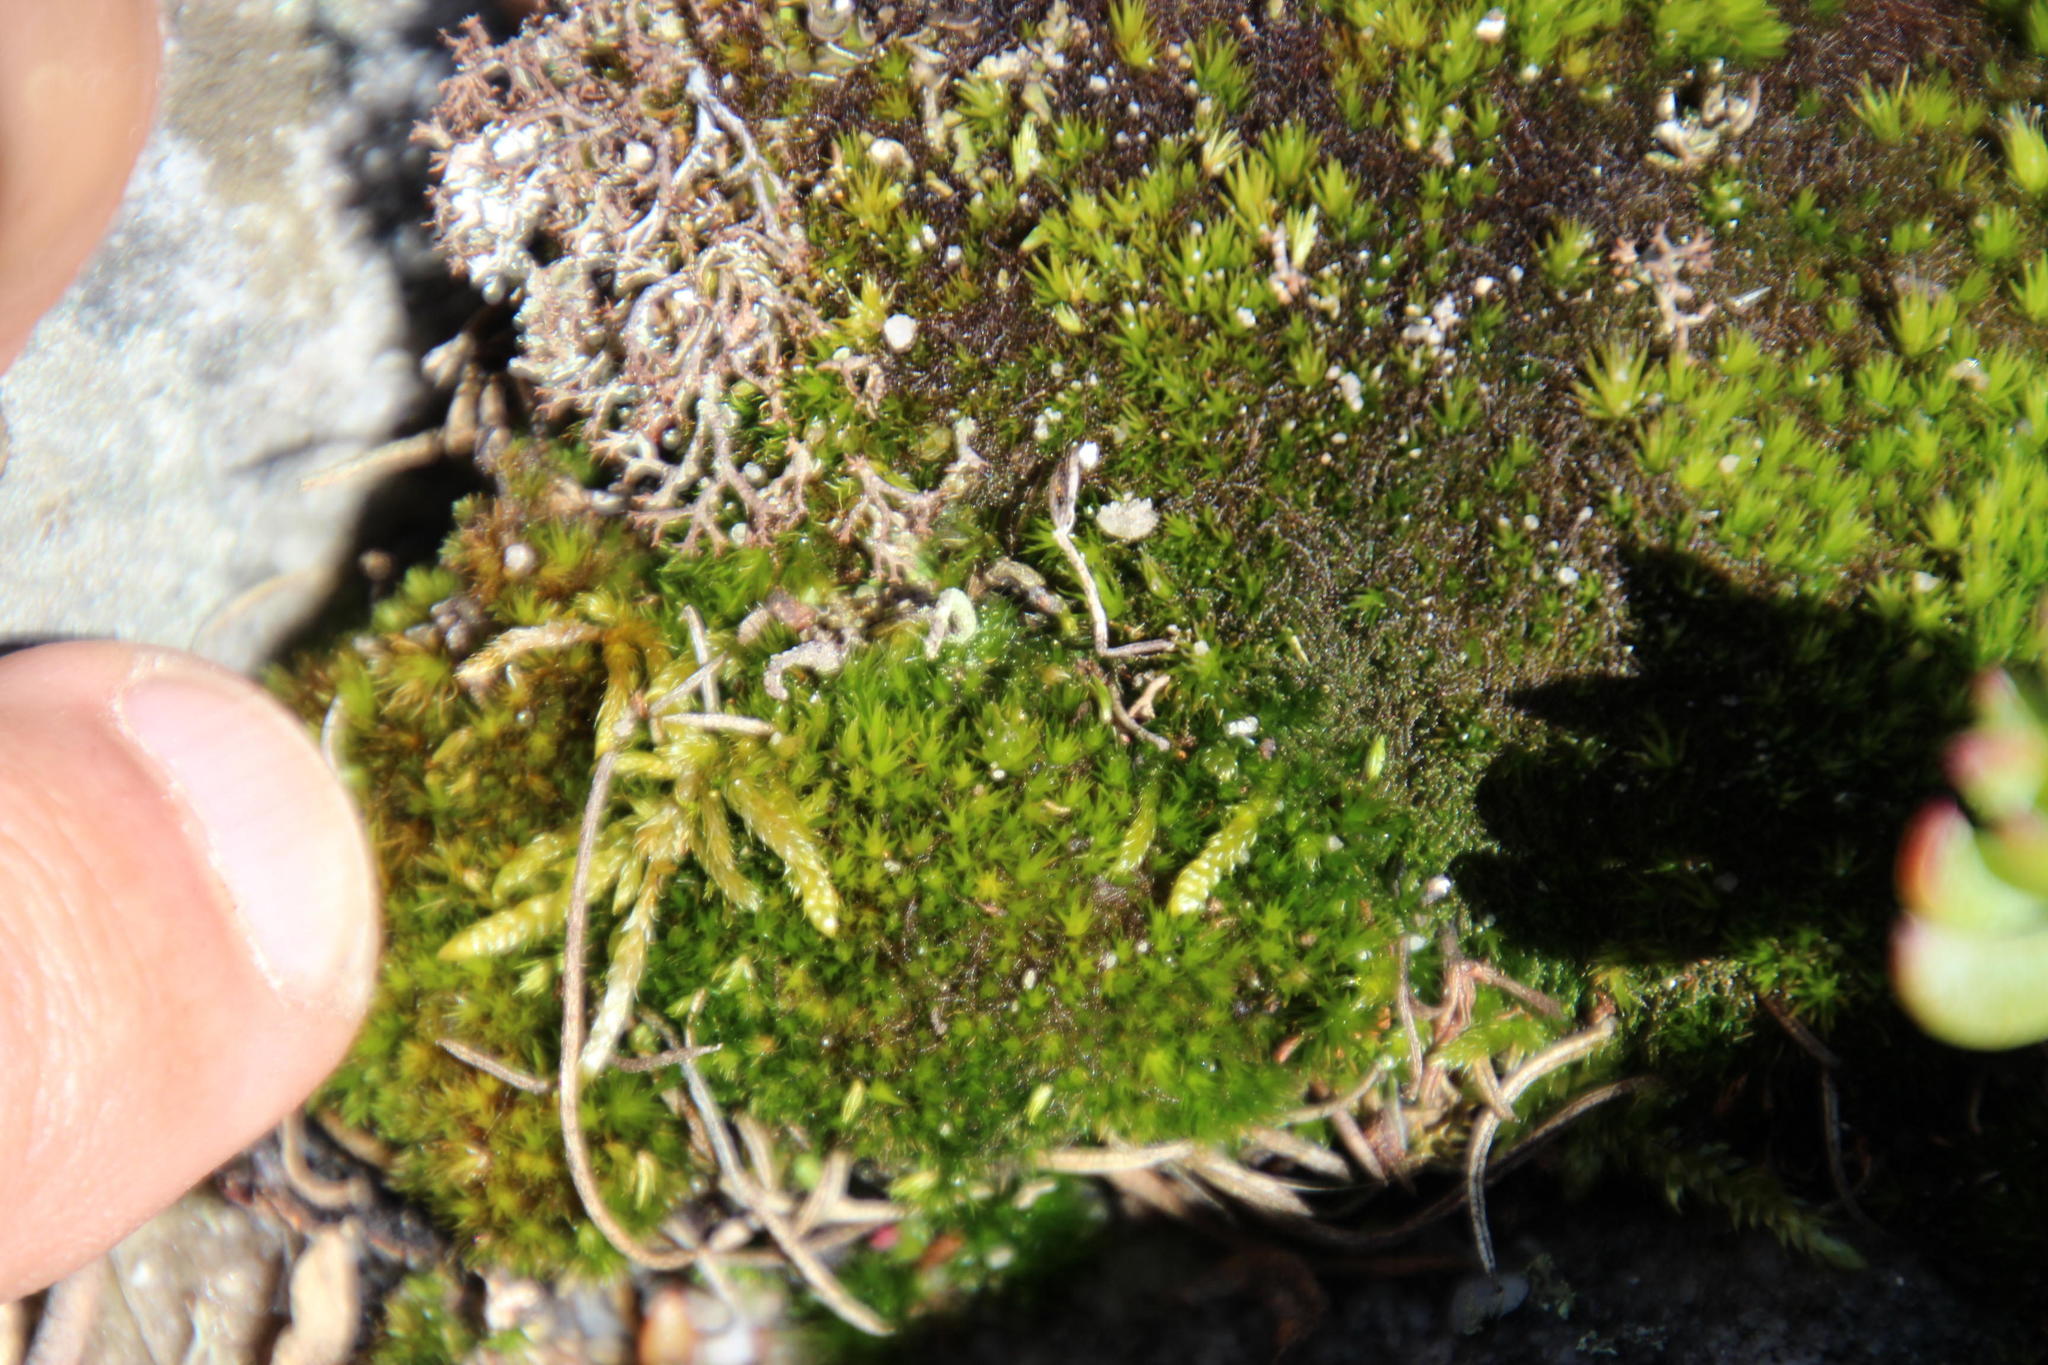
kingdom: Plantae
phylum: Bryophyta
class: Bryopsida
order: Hypnales
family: Hypnaceae
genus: Hypnum
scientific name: Hypnum cupressiforme
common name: Cypress-leaved plait-moss
